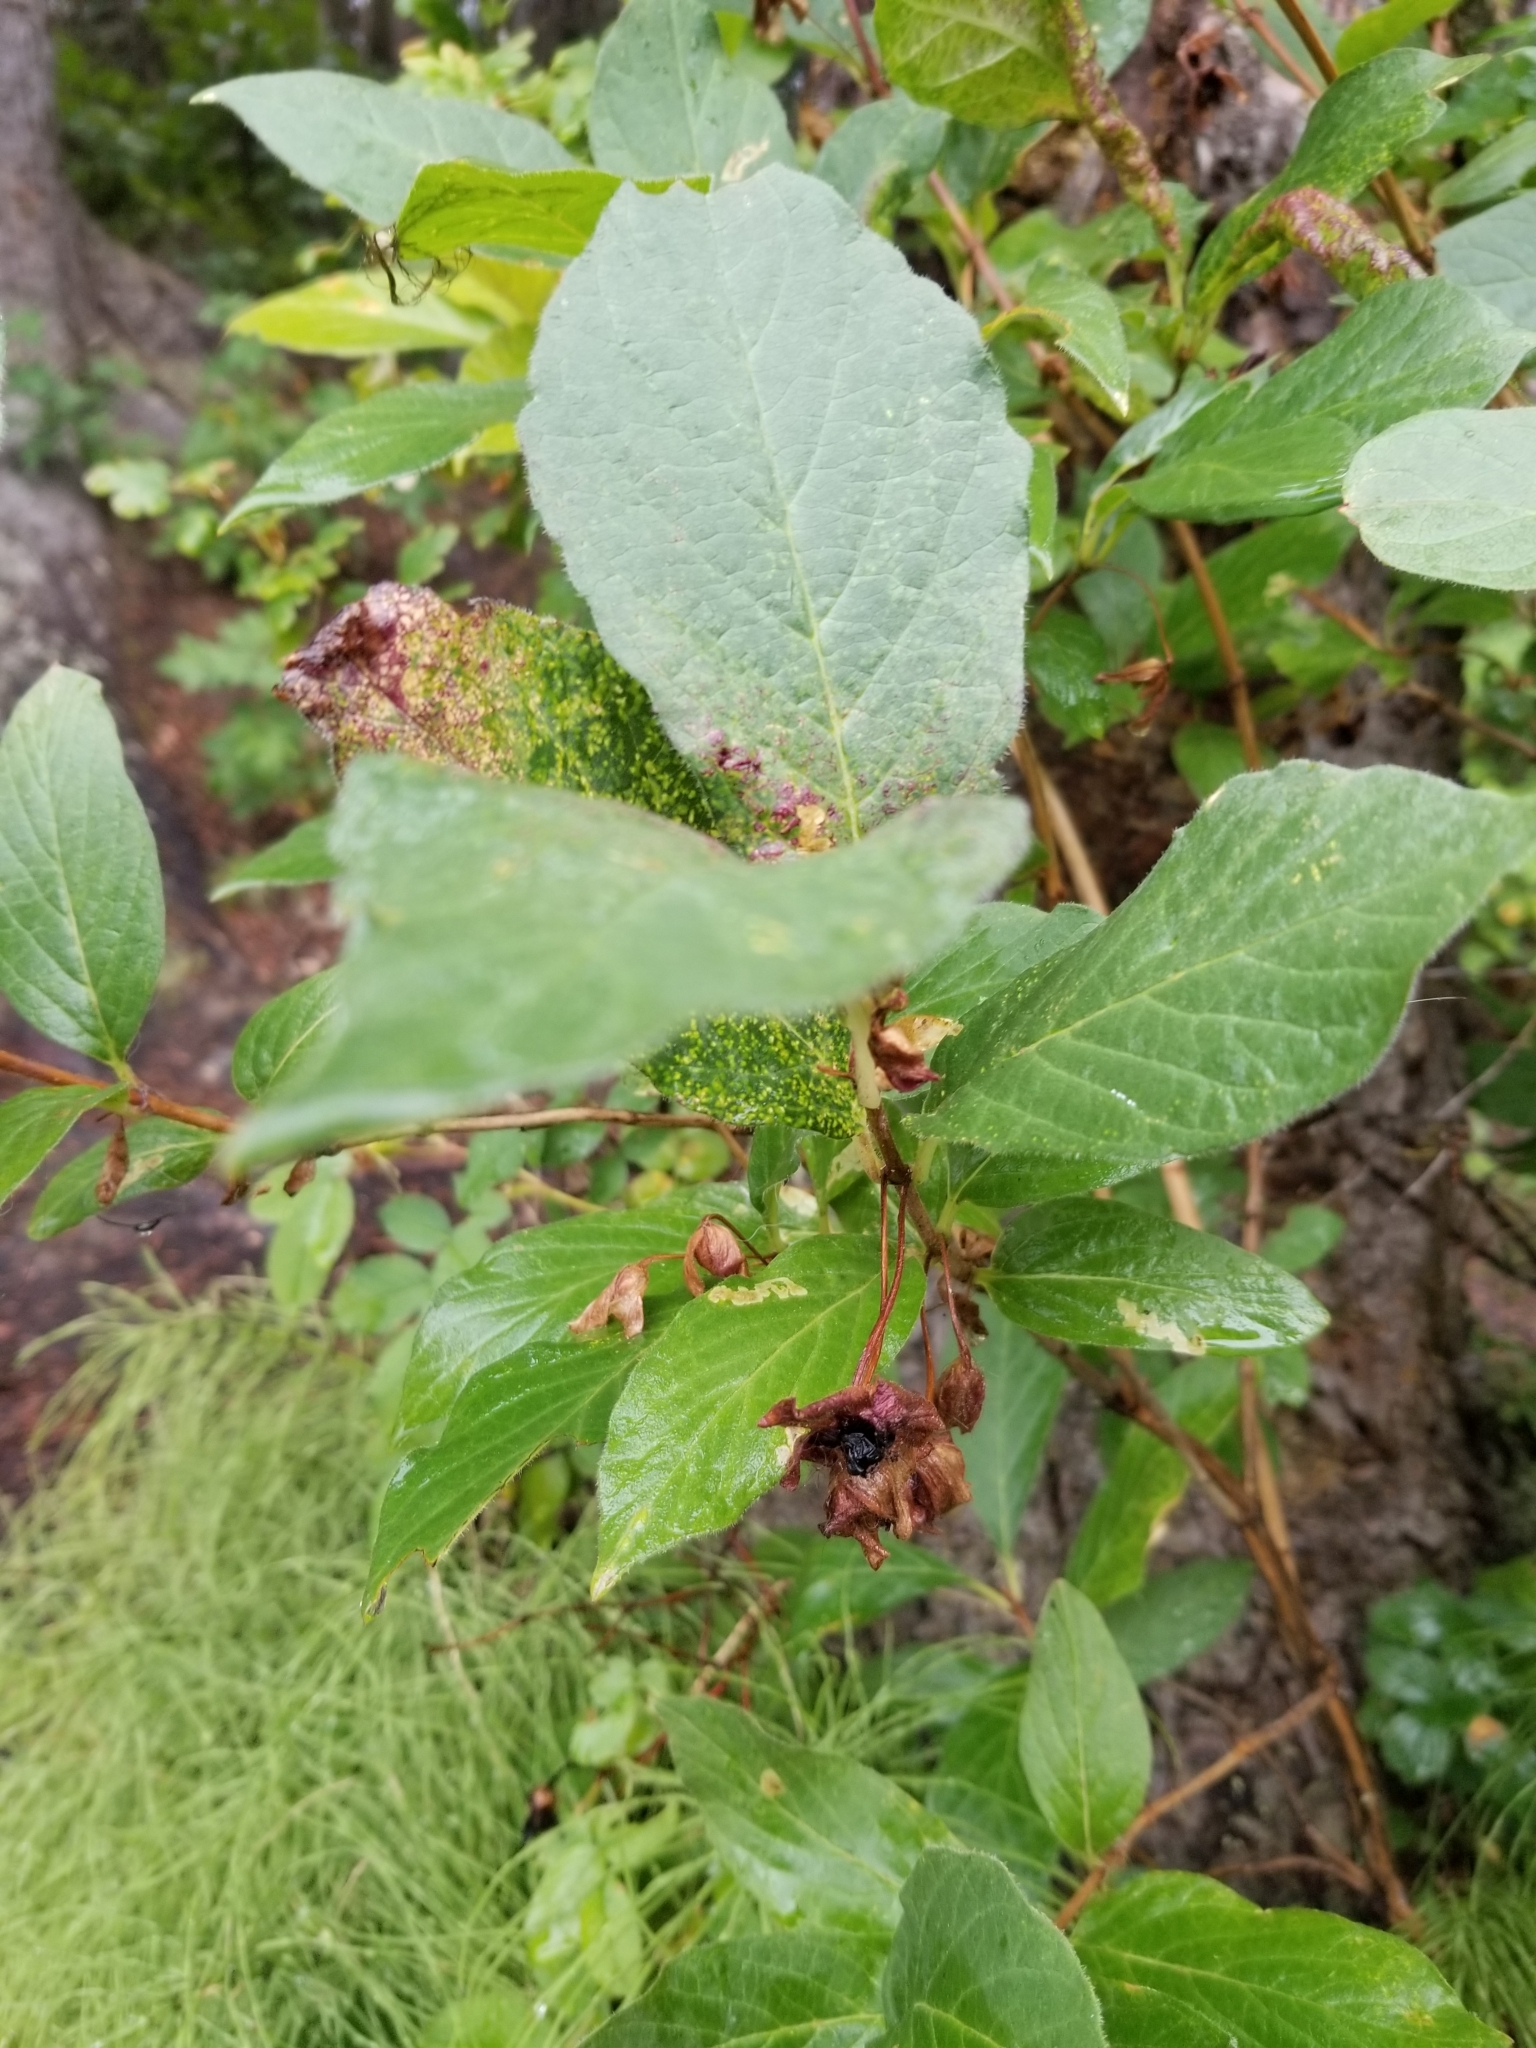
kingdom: Plantae
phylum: Tracheophyta
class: Magnoliopsida
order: Dipsacales
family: Caprifoliaceae
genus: Lonicera
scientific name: Lonicera involucrata
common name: Californian honeysuckle
